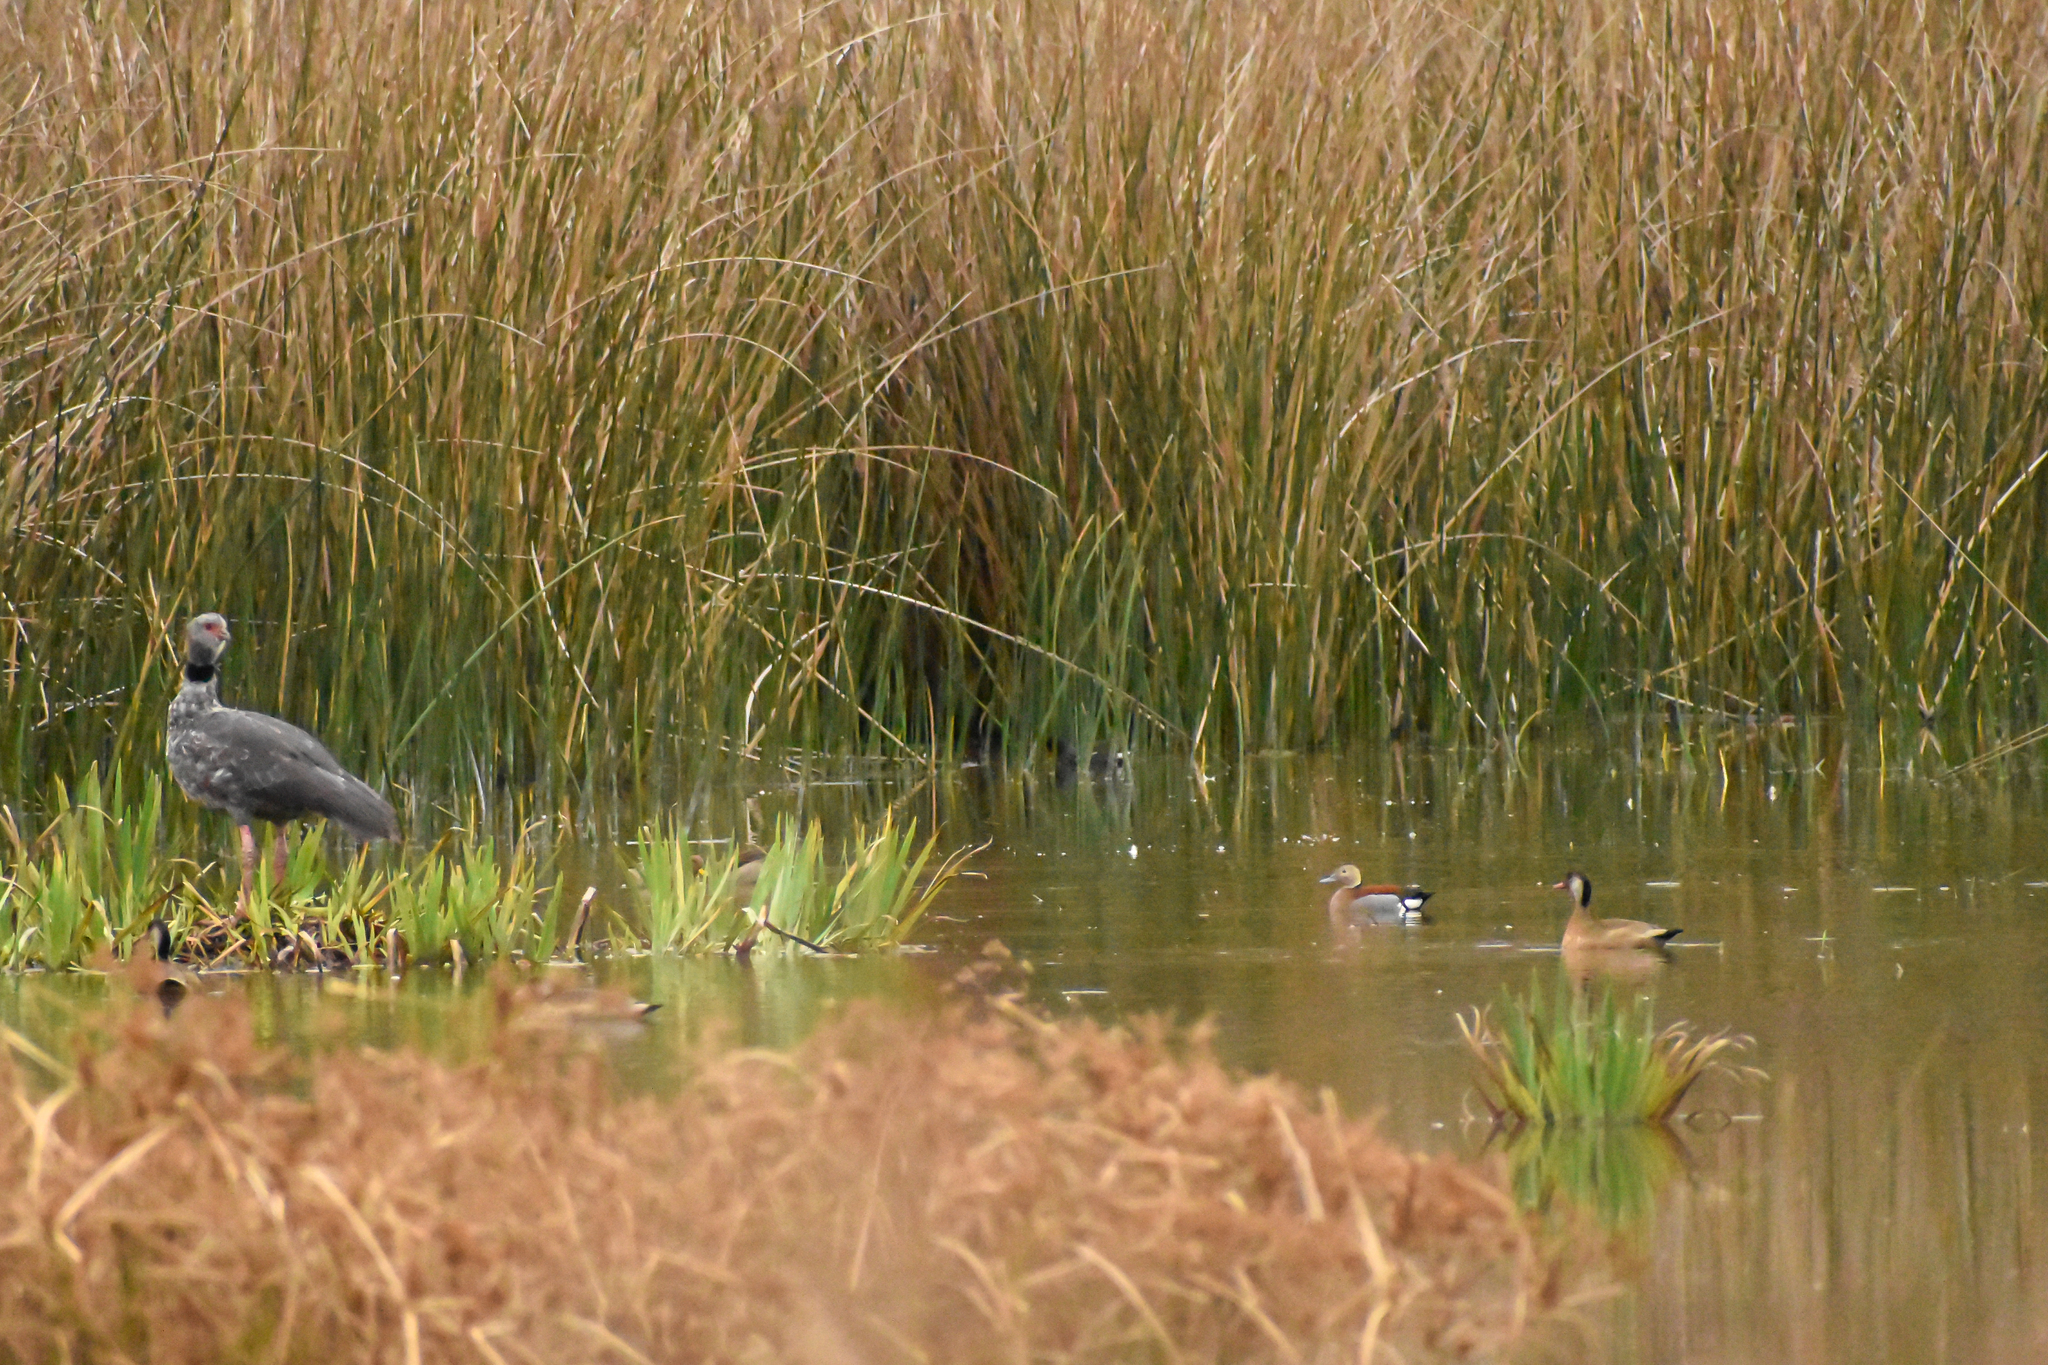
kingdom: Animalia
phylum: Chordata
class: Aves
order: Anseriformes
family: Anatidae
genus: Callonetta
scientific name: Callonetta leucophrys
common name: Ringed teal
